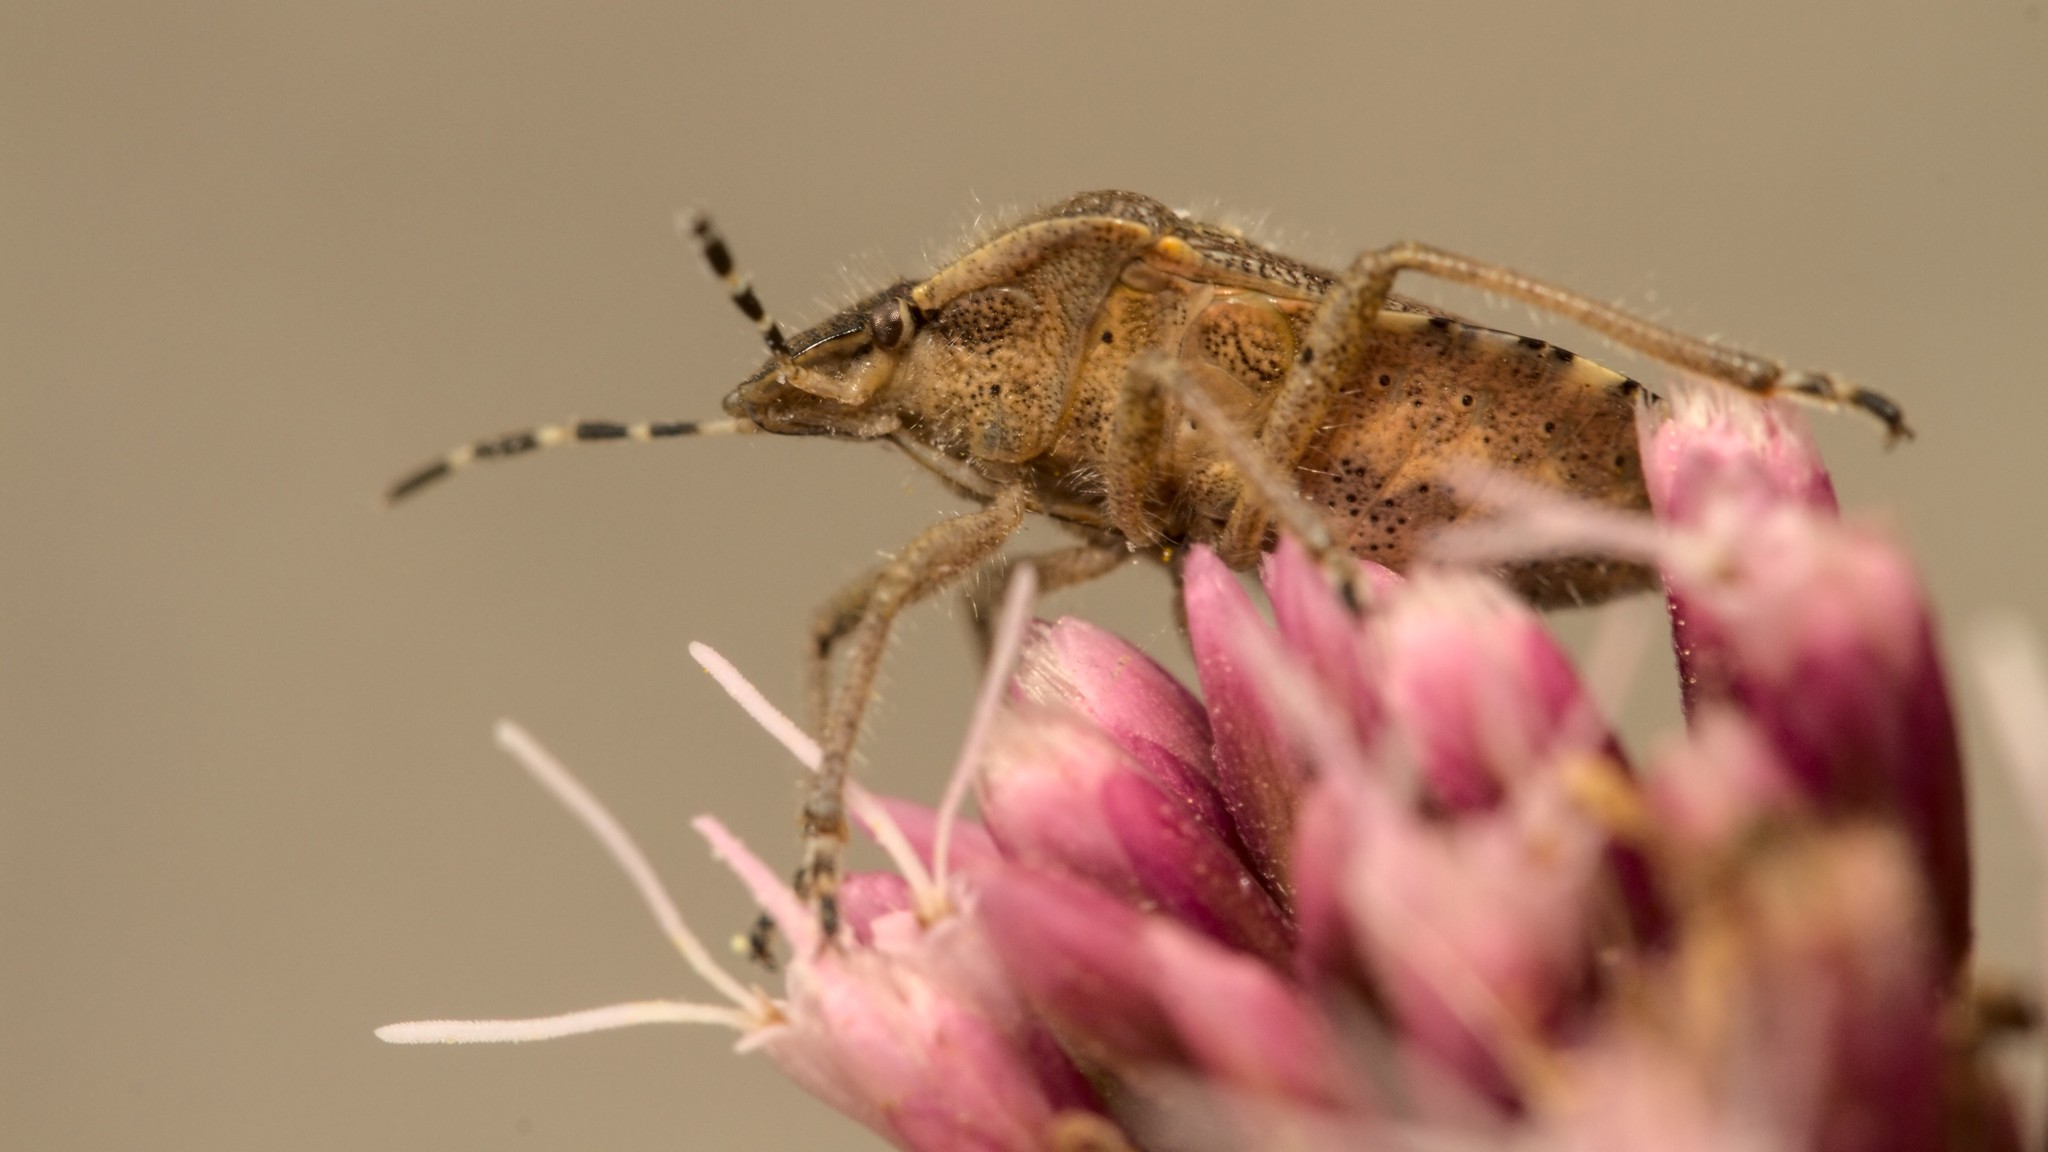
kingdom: Animalia
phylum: Arthropoda
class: Insecta
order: Hemiptera
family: Pentatomidae
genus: Dolycoris
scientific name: Dolycoris baccarum
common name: Sloe bug
